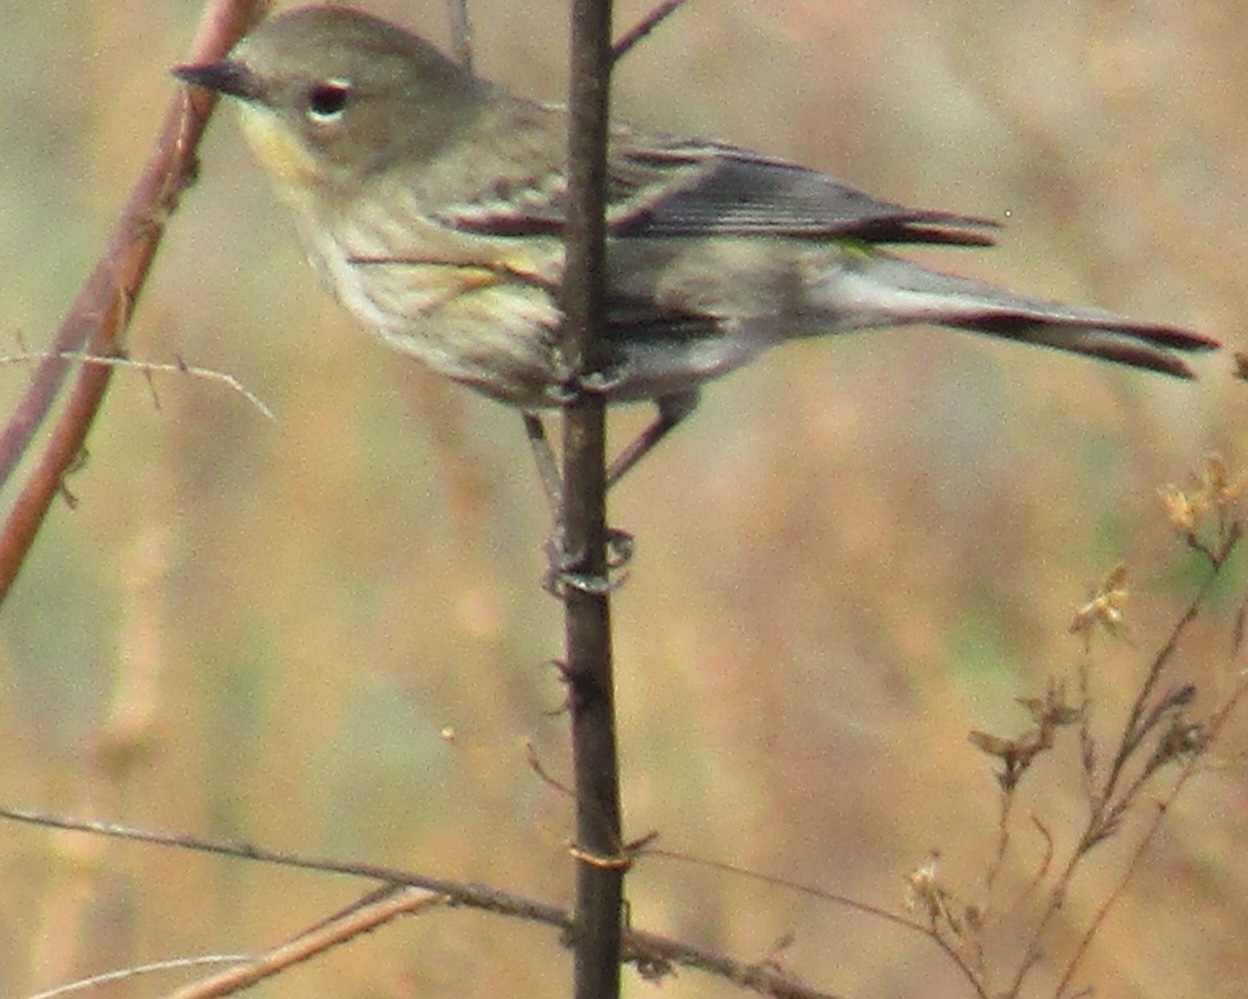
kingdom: Animalia
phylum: Chordata
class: Aves
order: Passeriformes
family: Parulidae
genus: Setophaga
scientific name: Setophaga coronata
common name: Myrtle warbler
